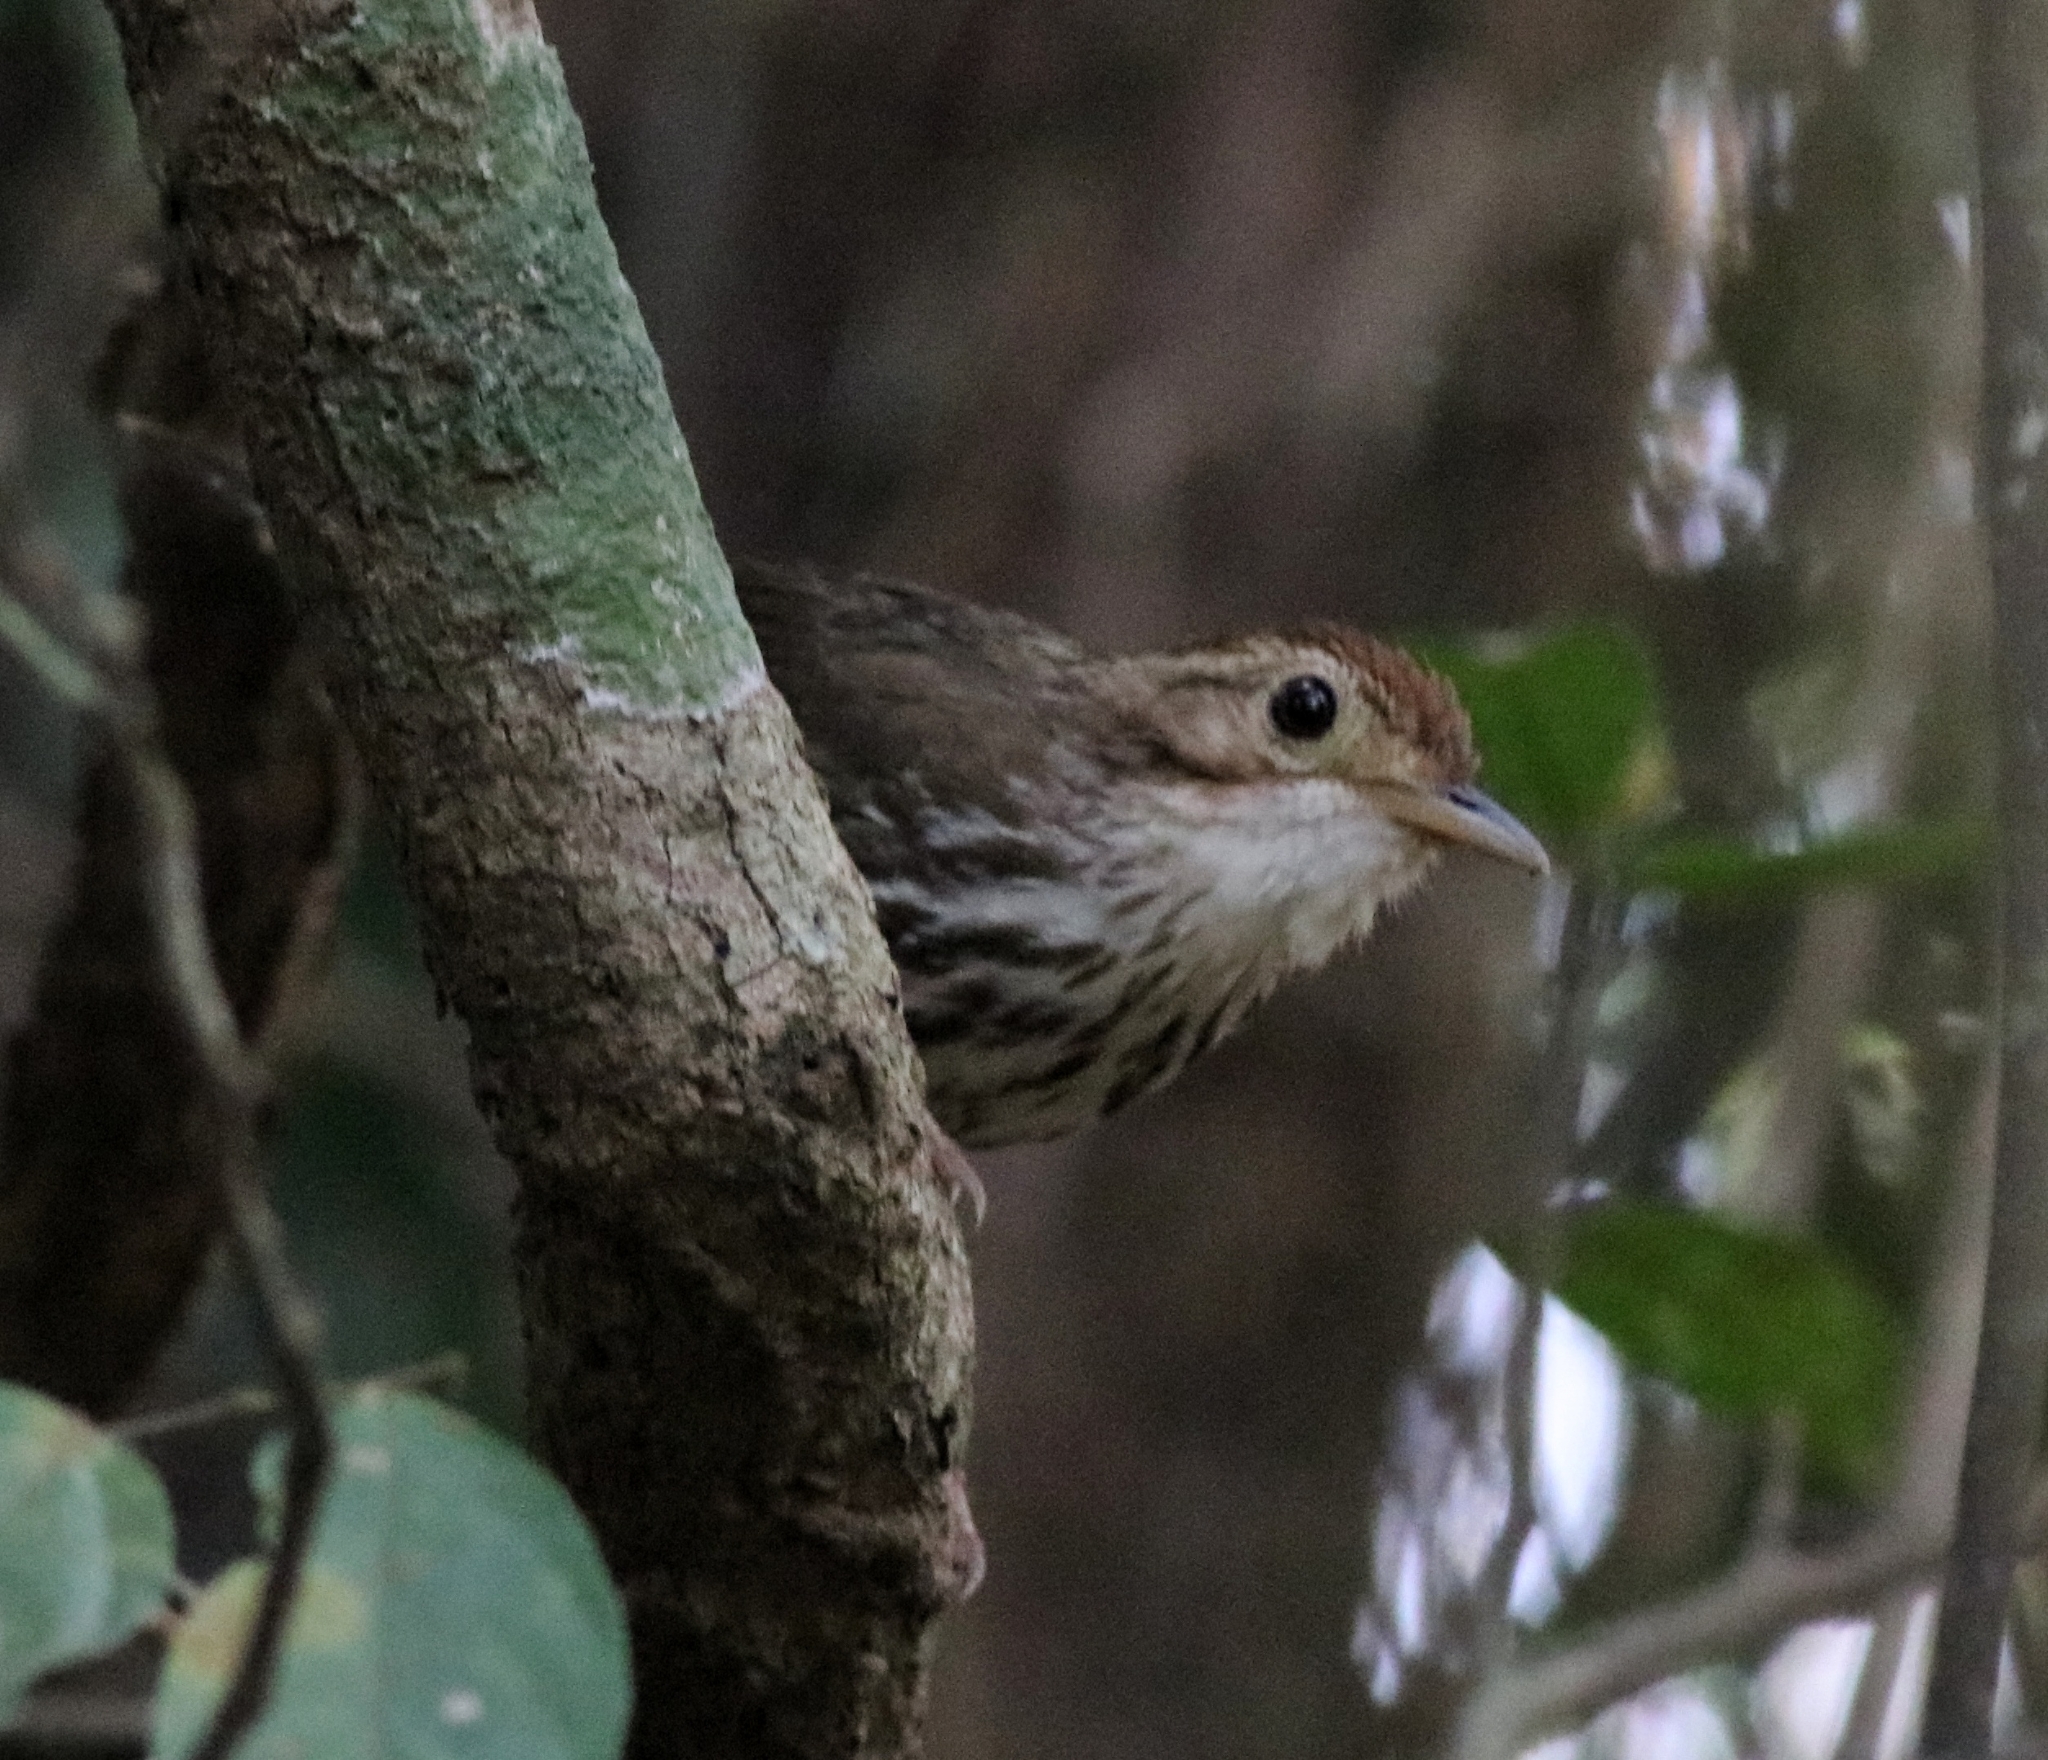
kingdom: Animalia
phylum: Chordata
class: Aves
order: Passeriformes
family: Pellorneidae
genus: Pellorneum
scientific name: Pellorneum ruficeps
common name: Puff-throated babbler
